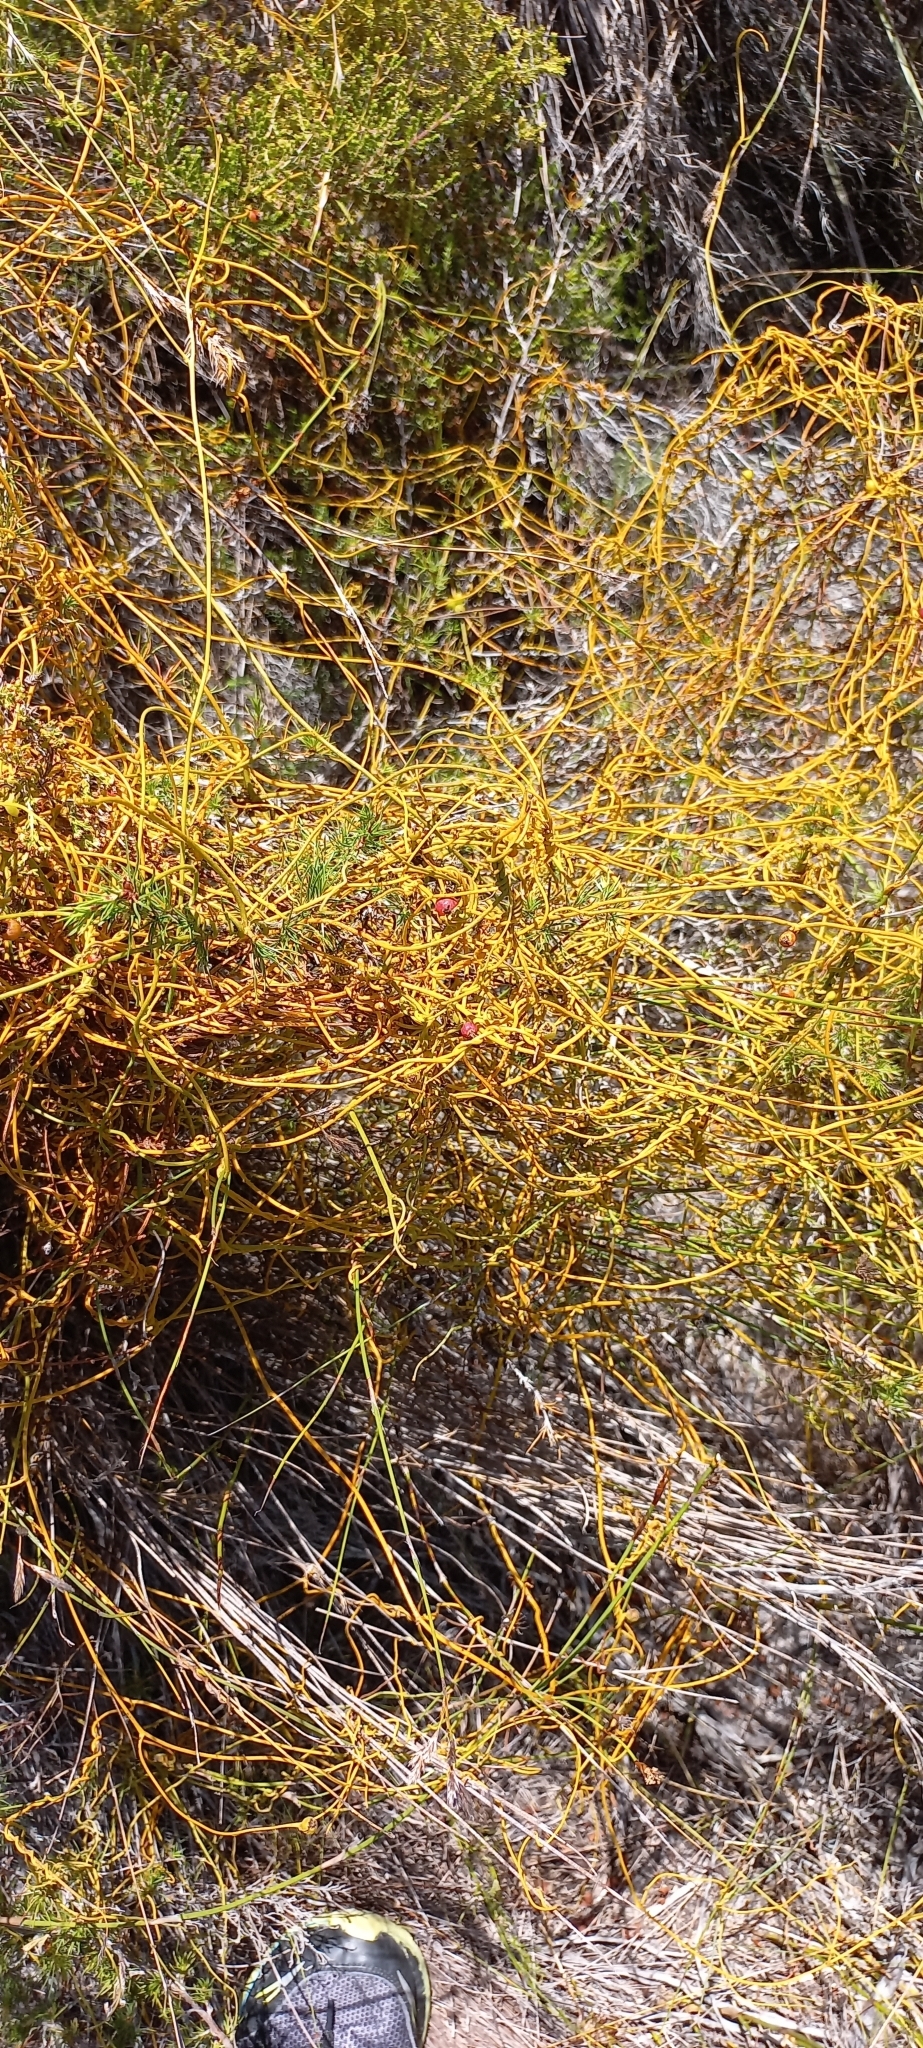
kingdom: Plantae
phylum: Tracheophyta
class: Magnoliopsida
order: Laurales
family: Lauraceae
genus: Cassytha
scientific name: Cassytha ciliolata
